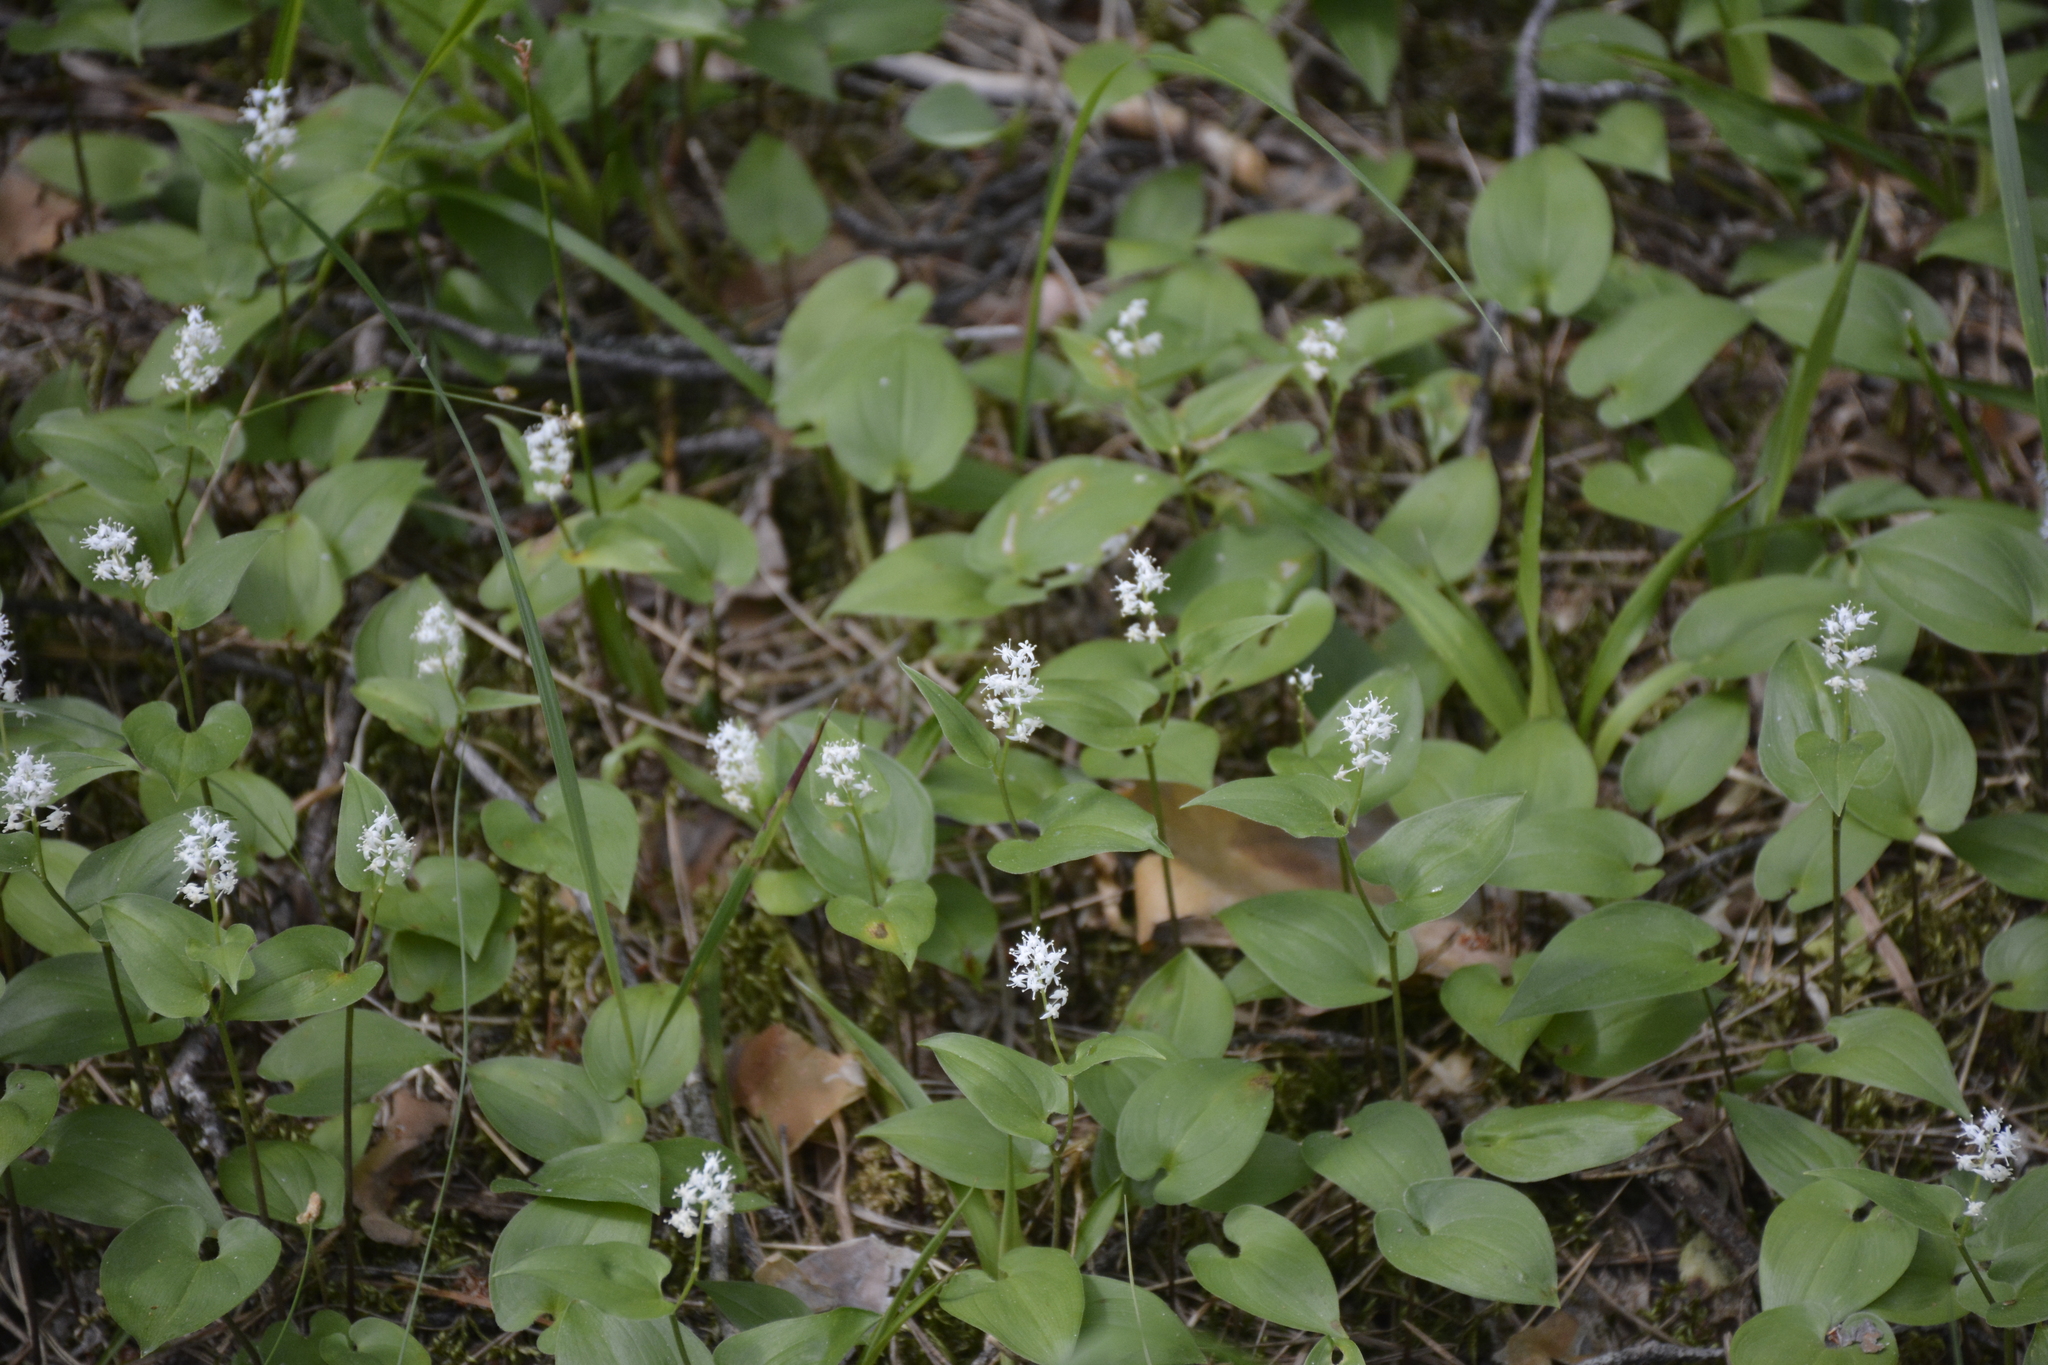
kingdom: Plantae
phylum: Tracheophyta
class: Liliopsida
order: Asparagales
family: Asparagaceae
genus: Maianthemum
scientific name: Maianthemum bifolium
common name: May lily
